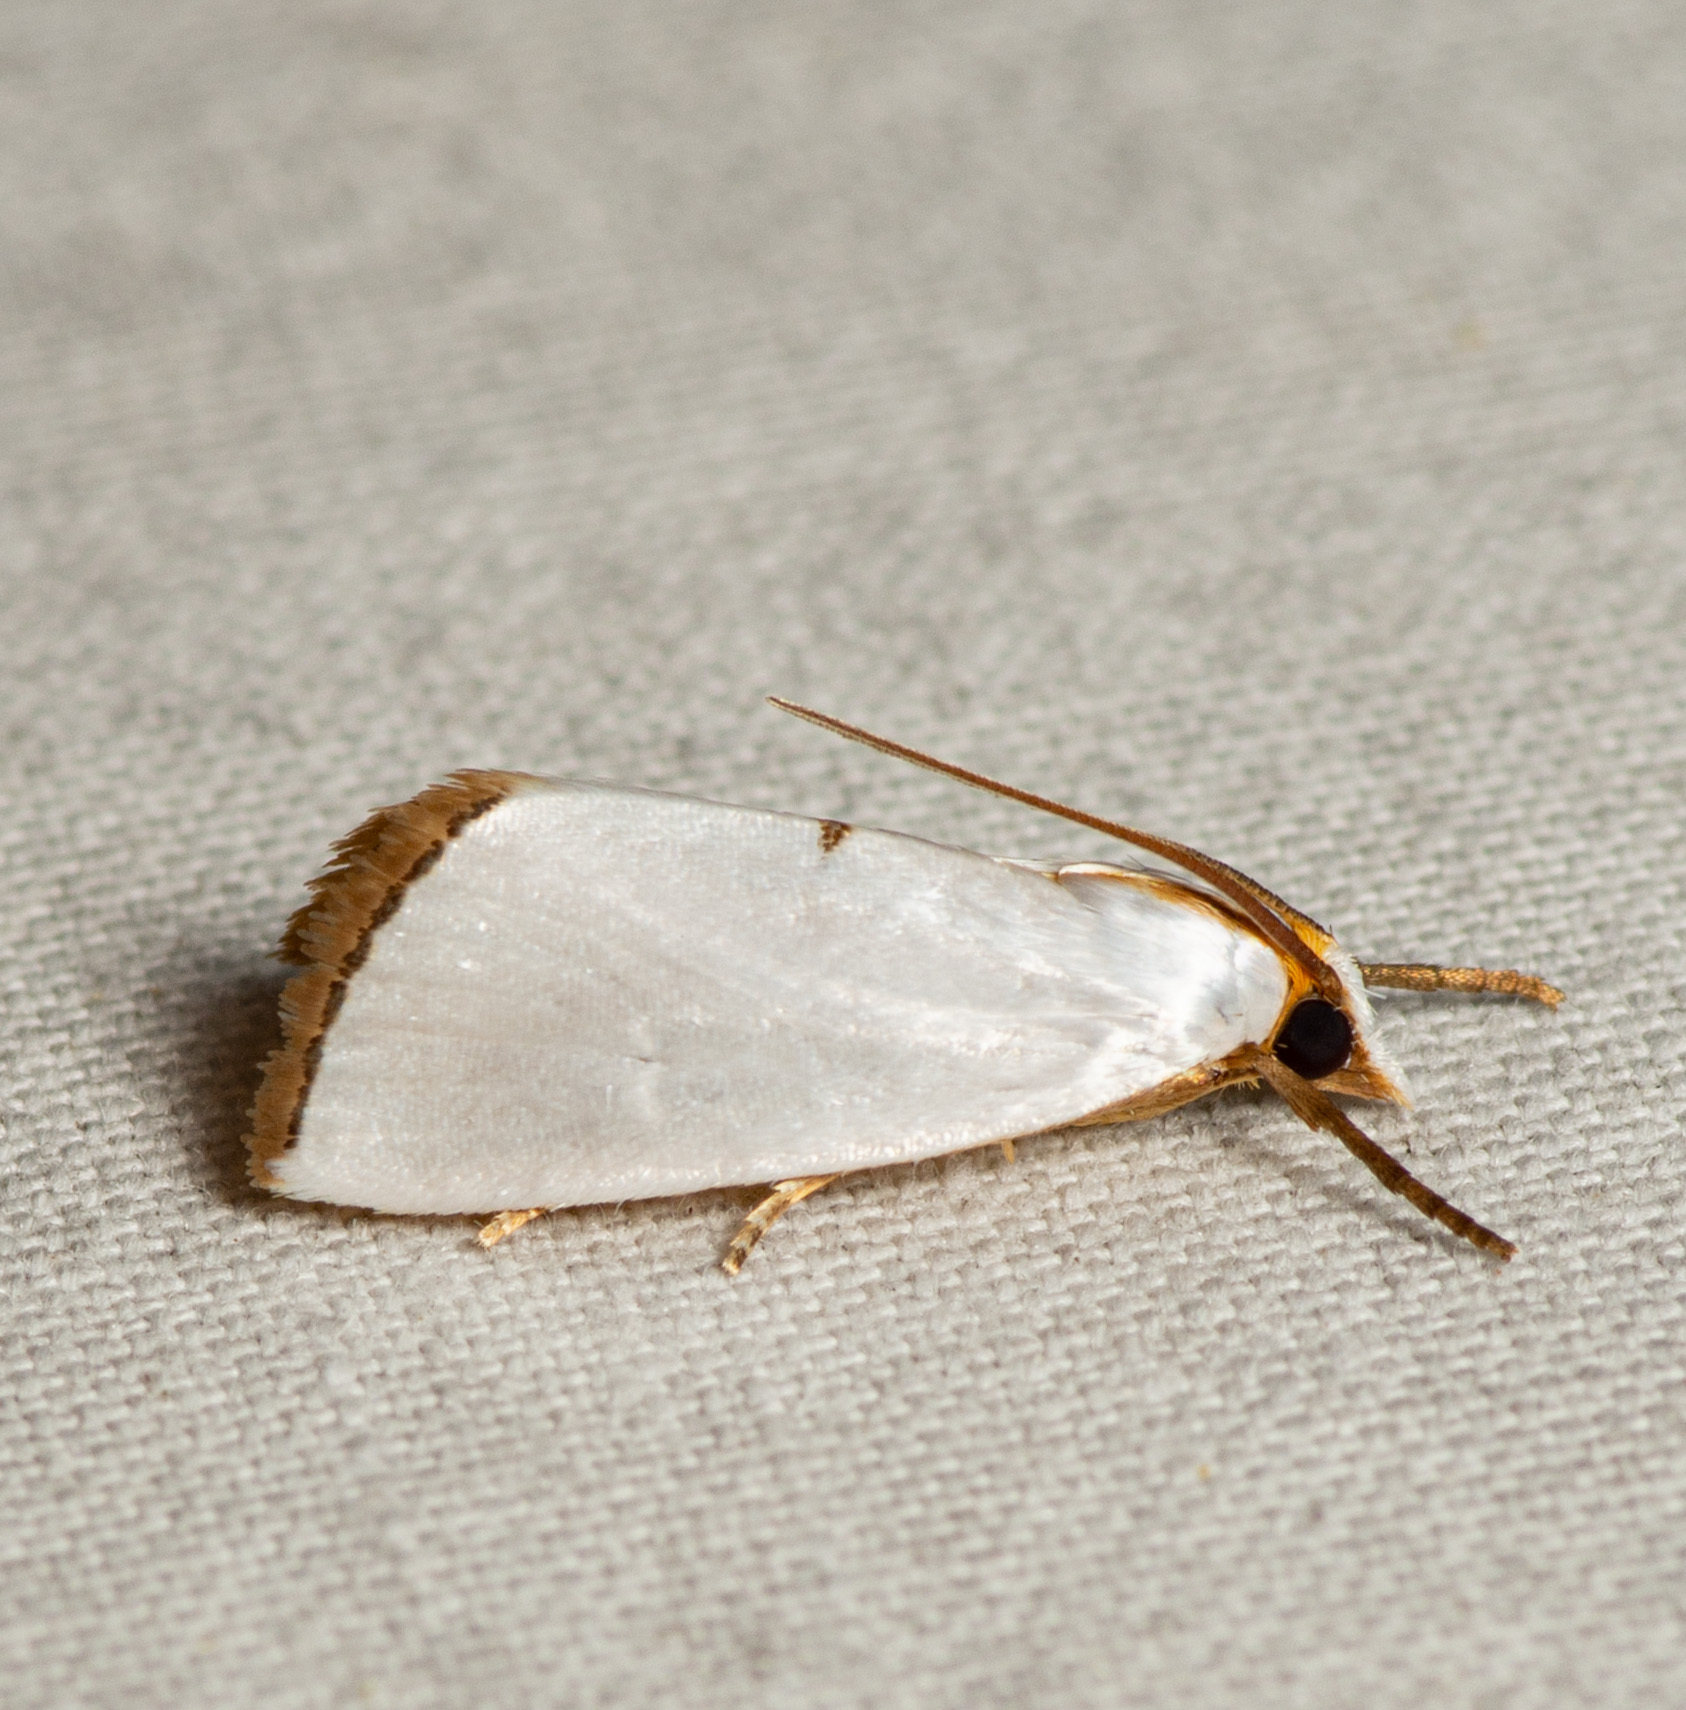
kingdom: Animalia
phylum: Arthropoda
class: Insecta
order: Lepidoptera
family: Crambidae
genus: Argyria
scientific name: Argyria nivalis
